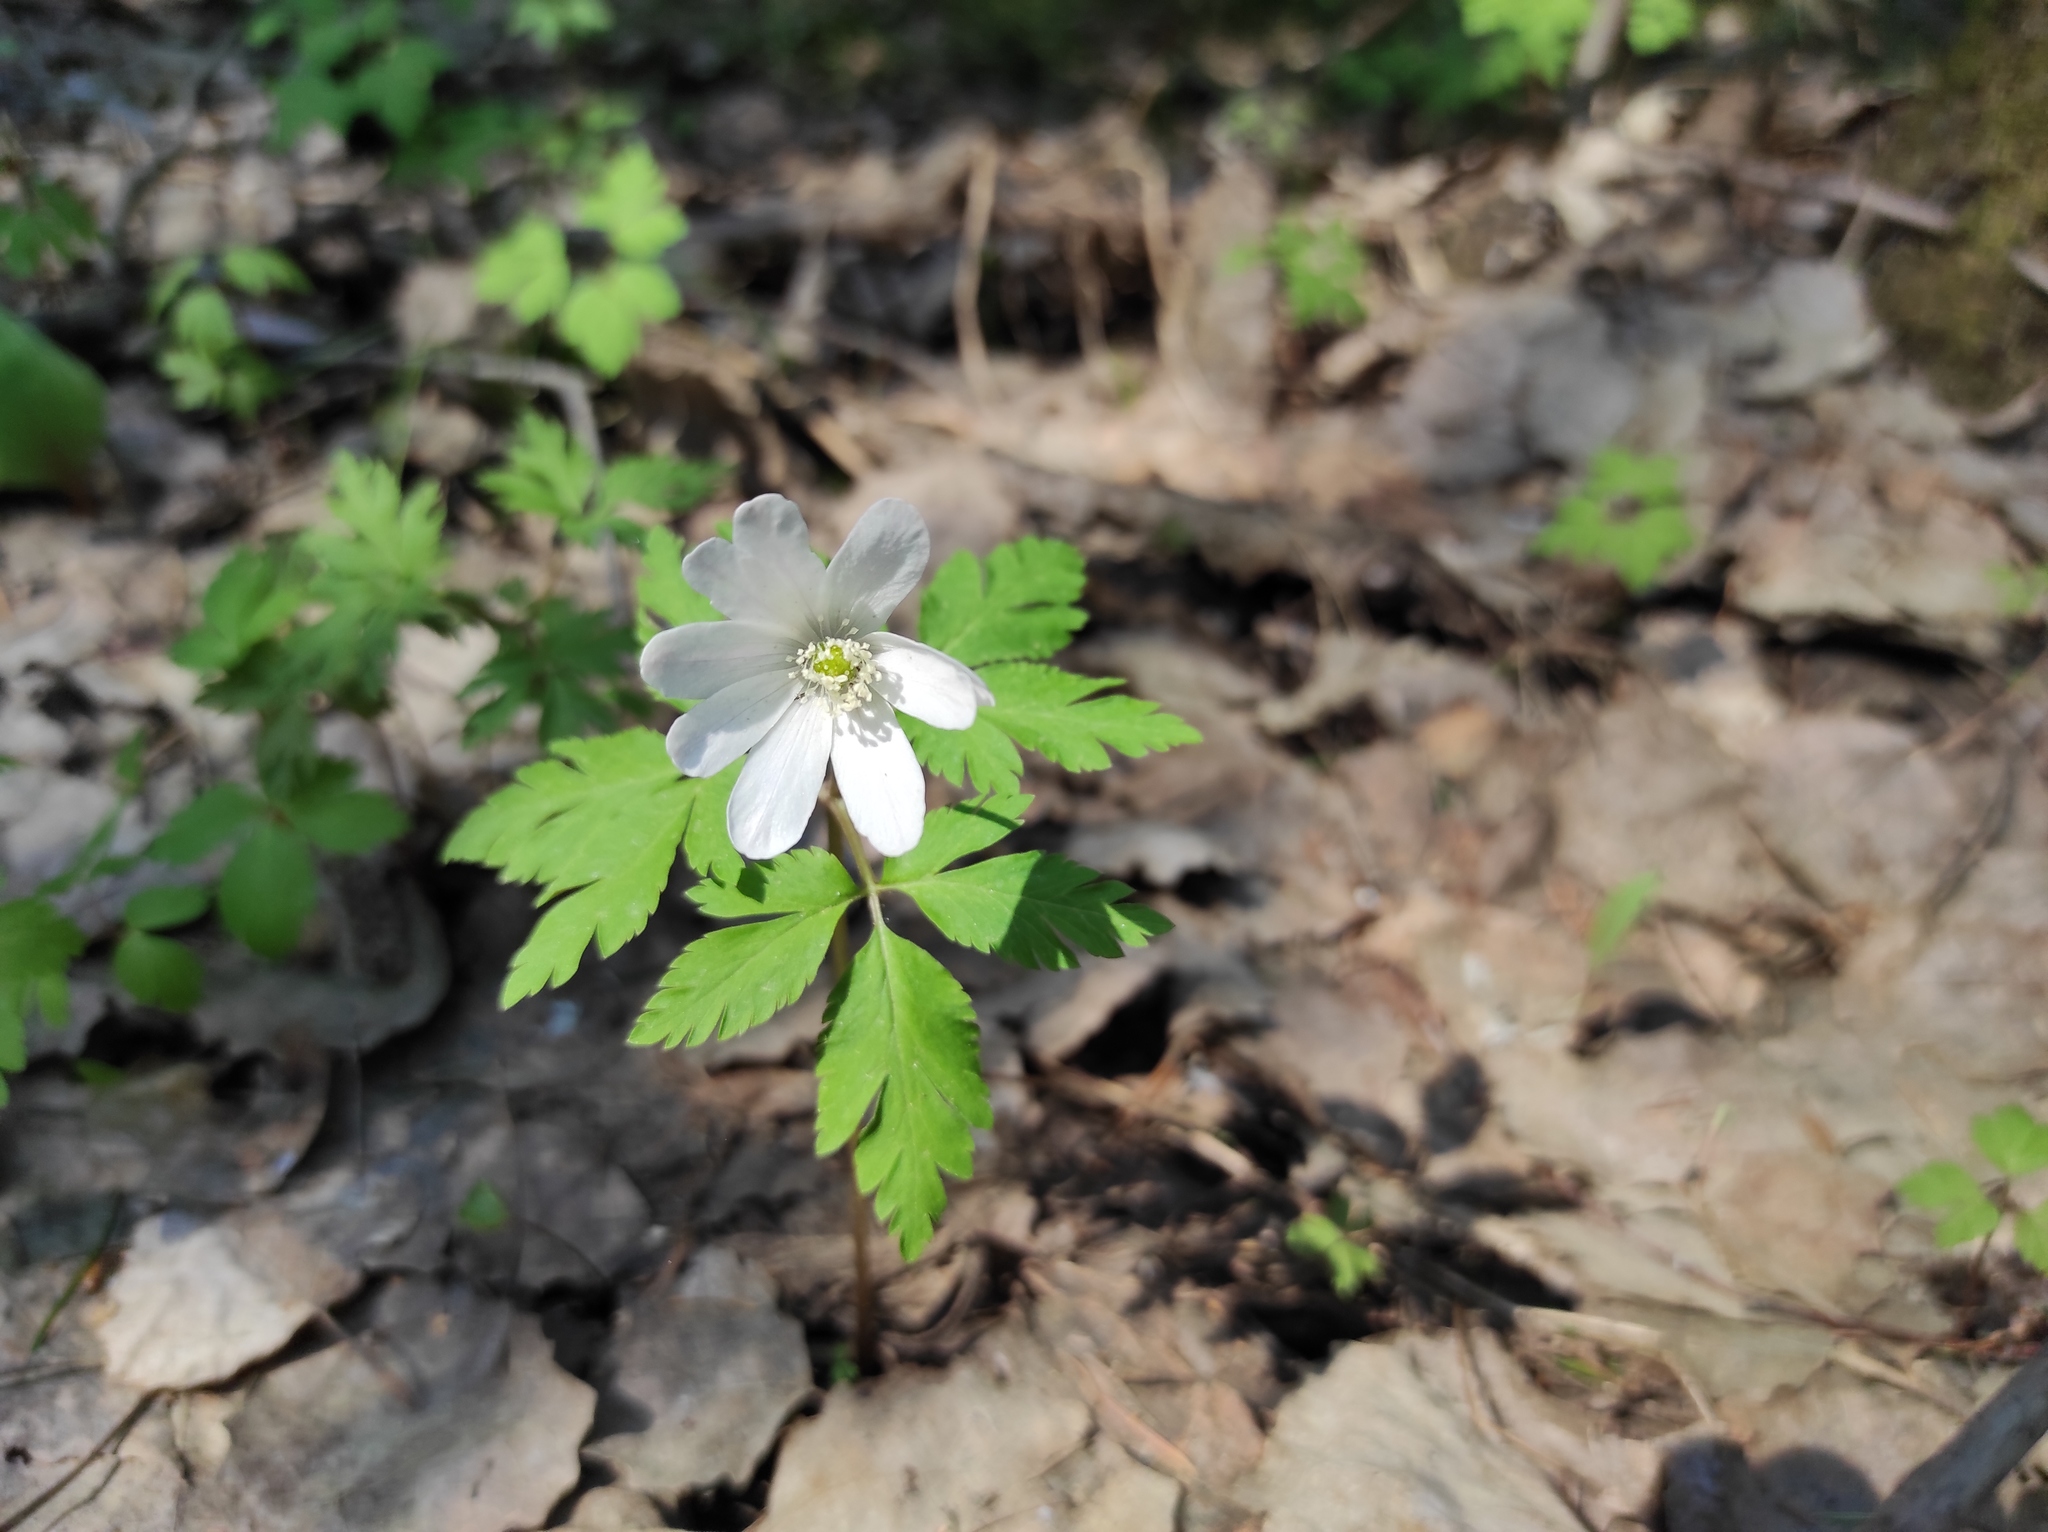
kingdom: Plantae
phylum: Tracheophyta
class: Magnoliopsida
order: Ranunculales
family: Ranunculaceae
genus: Anemone
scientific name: Anemone altaica
